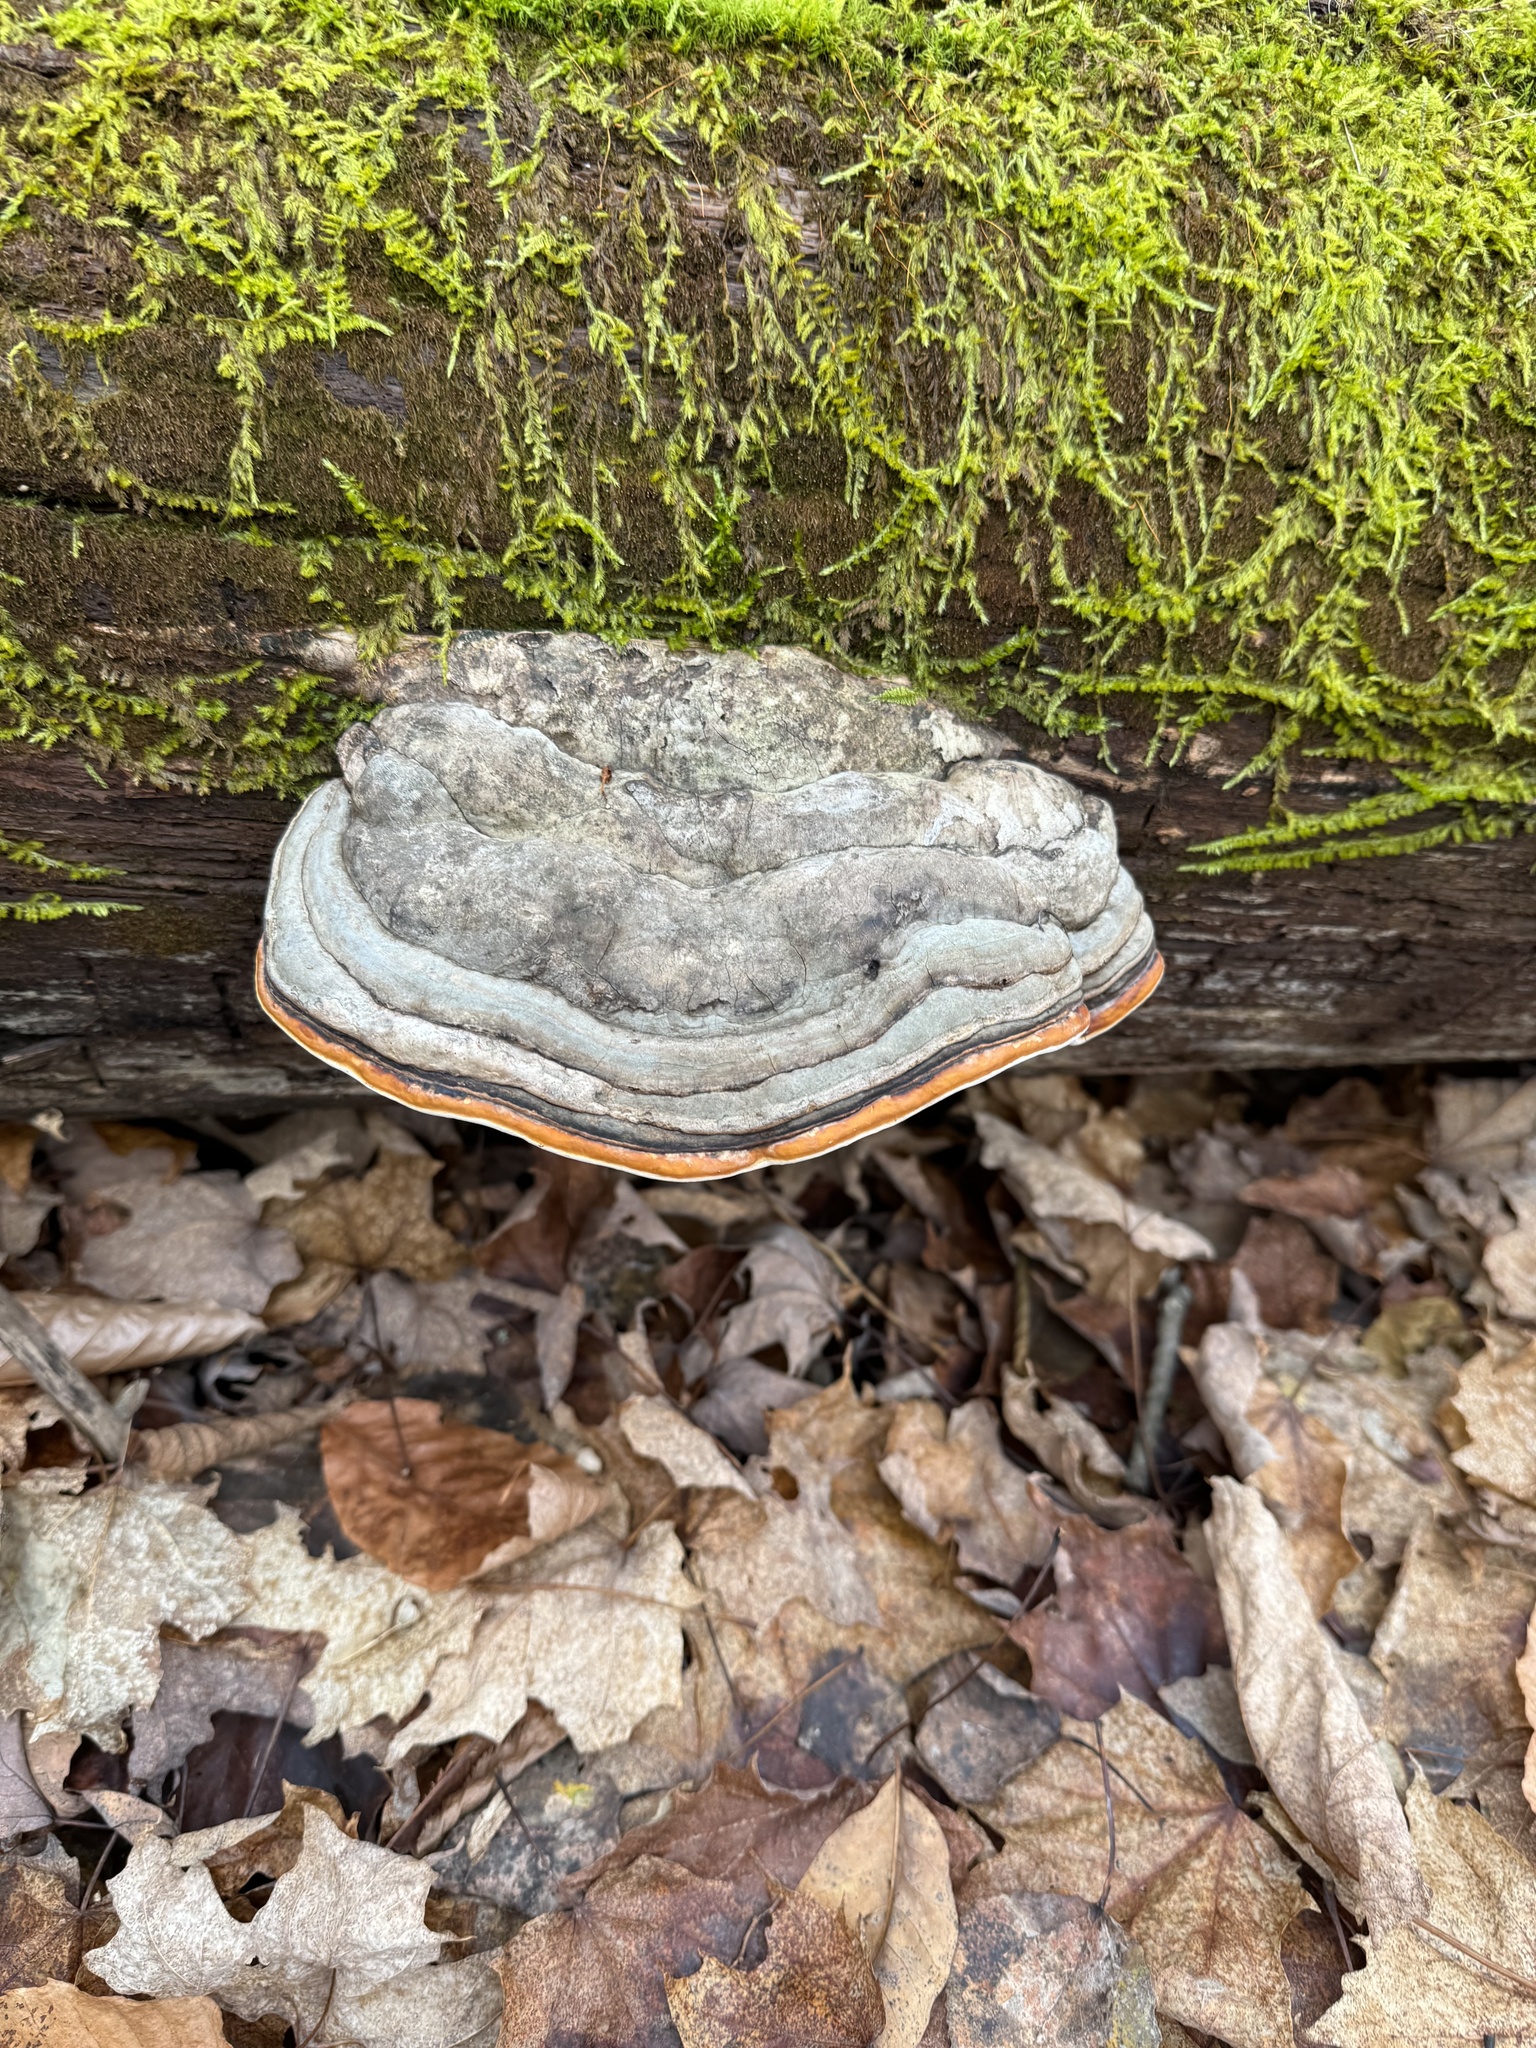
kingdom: Fungi
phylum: Basidiomycota
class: Agaricomycetes
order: Polyporales
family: Fomitopsidaceae
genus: Fomitopsis
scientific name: Fomitopsis mounceae
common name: Northern red belt
